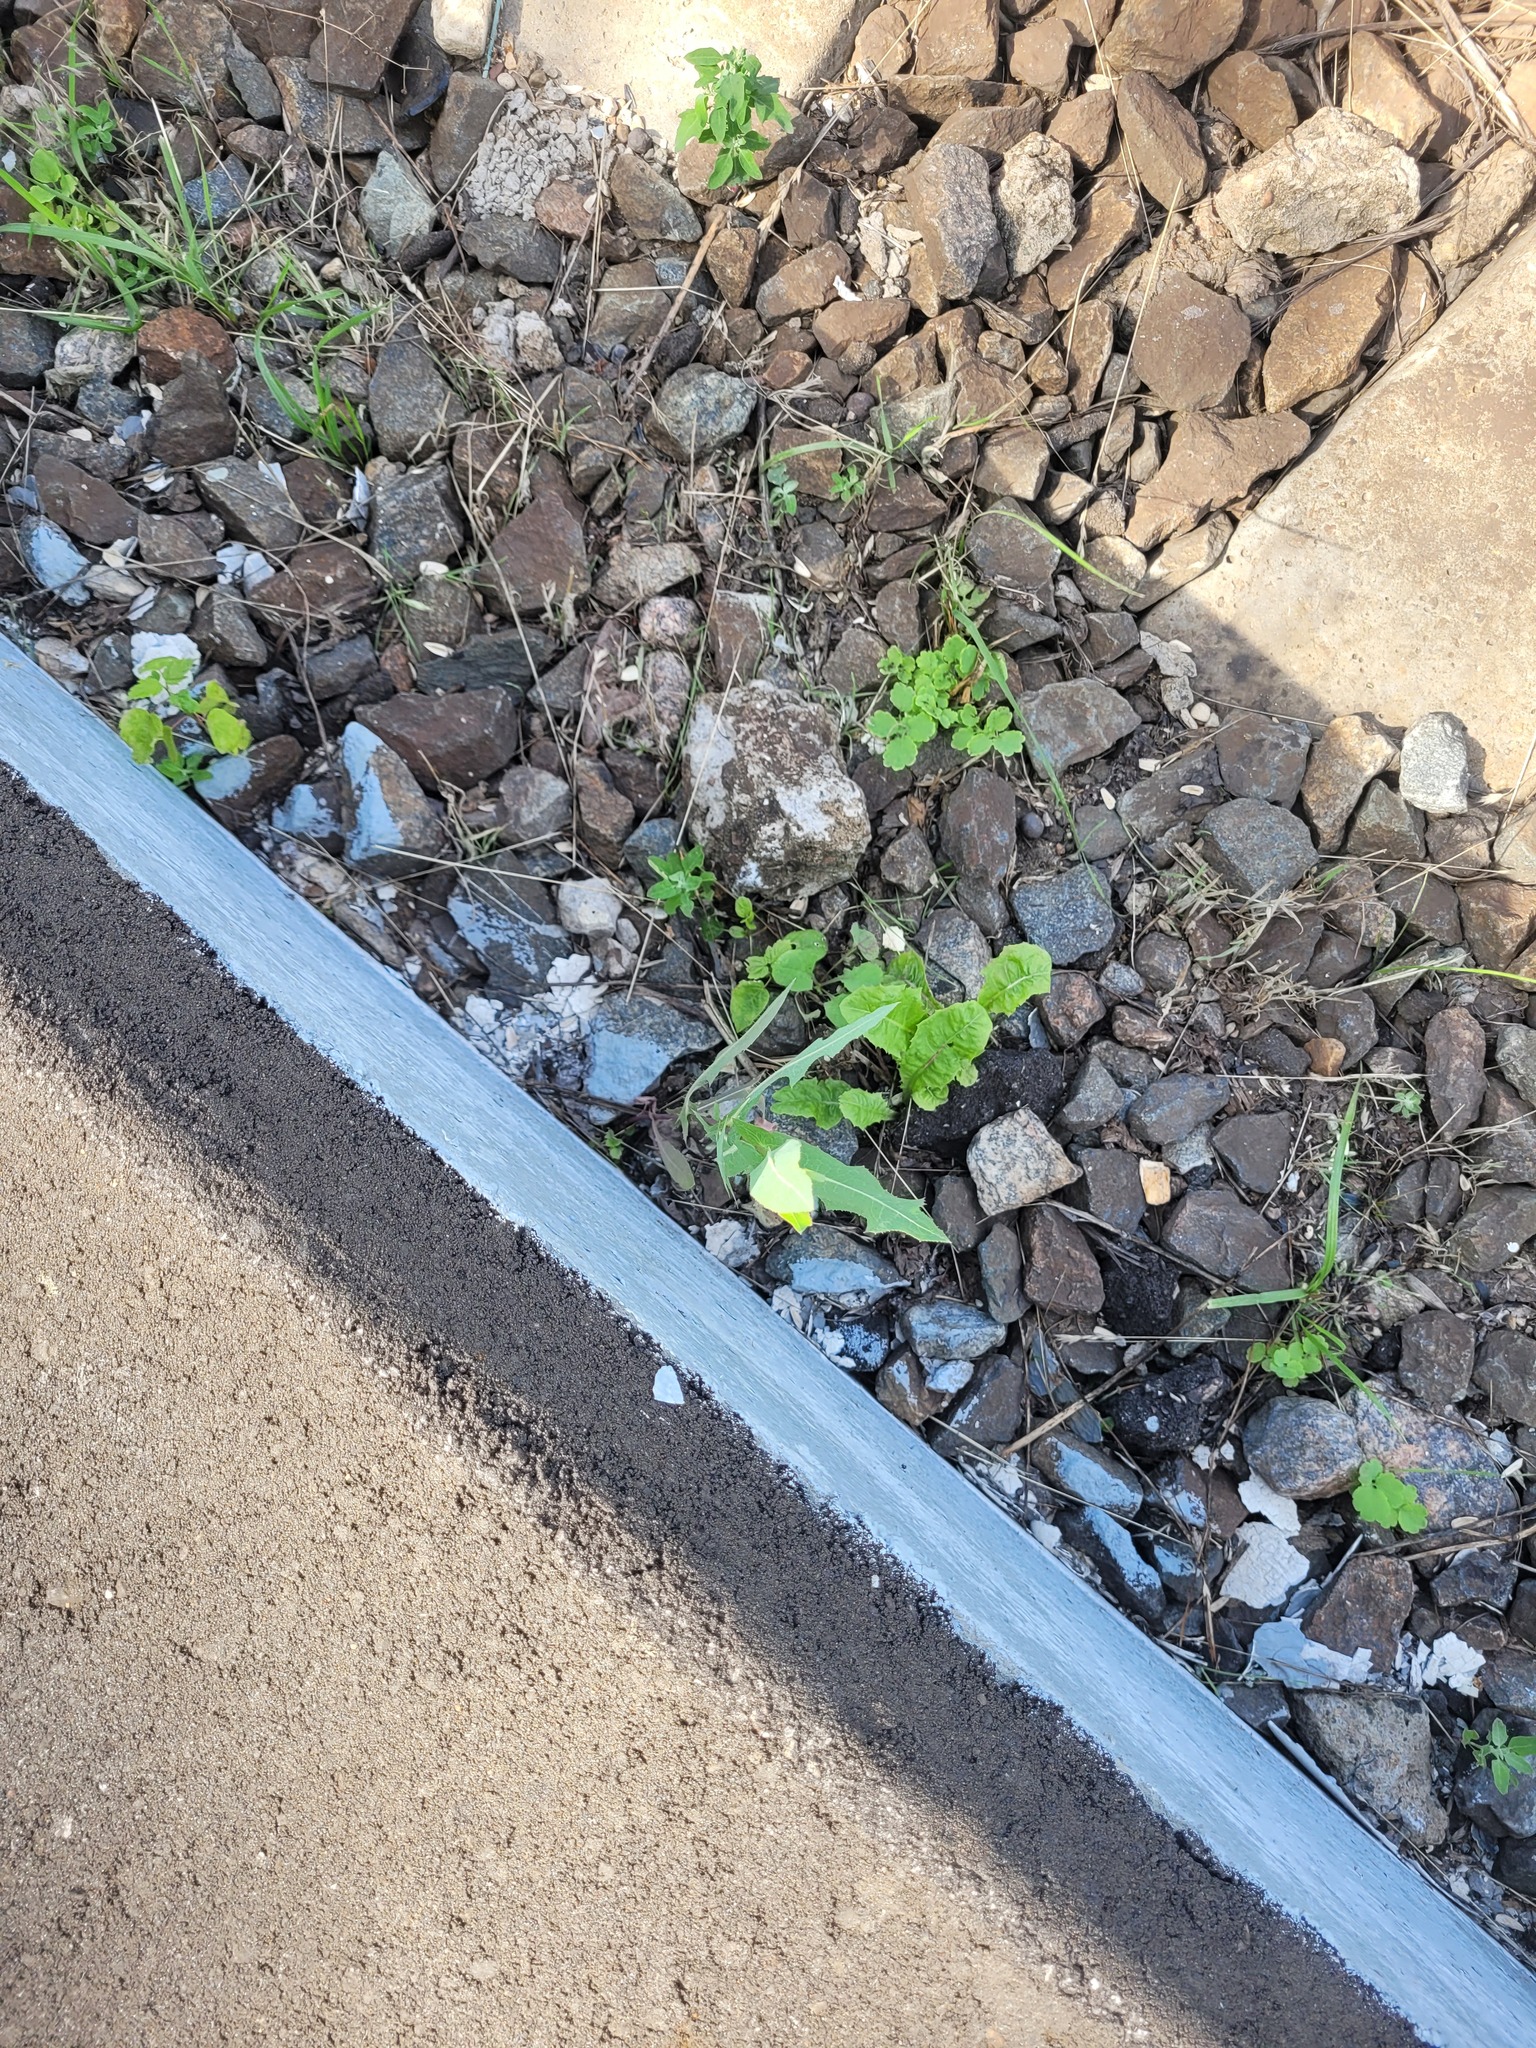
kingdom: Plantae
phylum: Tracheophyta
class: Magnoliopsida
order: Asterales
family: Asteraceae
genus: Lactuca
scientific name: Lactuca serriola
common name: Prickly lettuce
